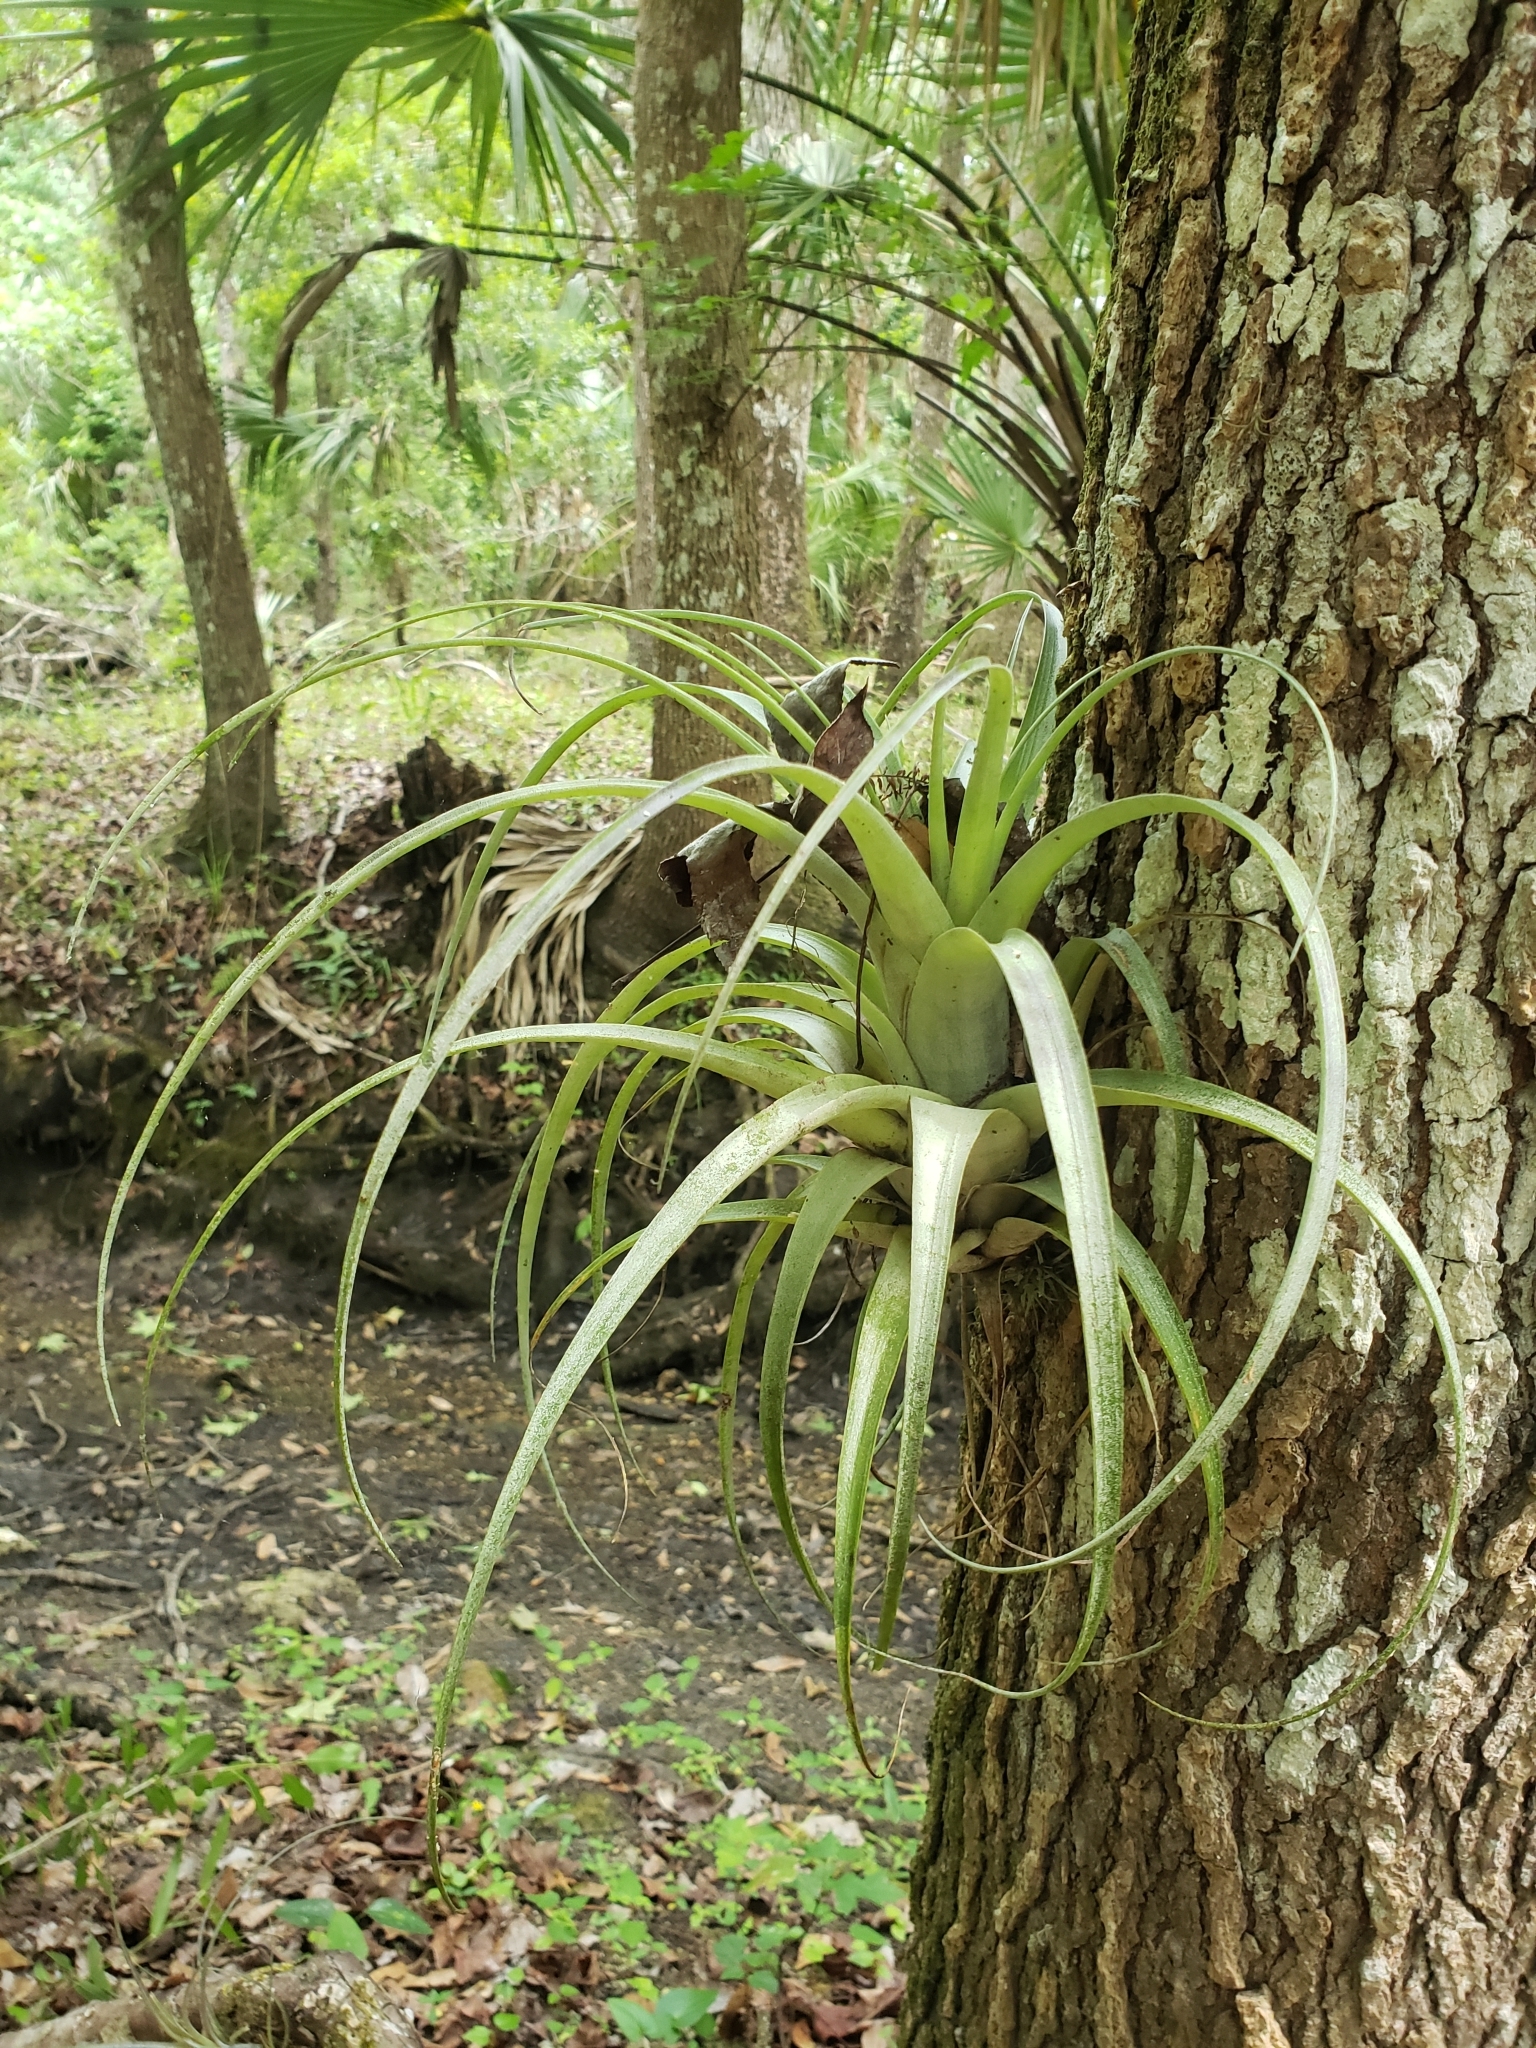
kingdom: Plantae
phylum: Tracheophyta
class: Liliopsida
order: Poales
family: Bromeliaceae
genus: Tillandsia
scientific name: Tillandsia utriculata
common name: Wild pine
